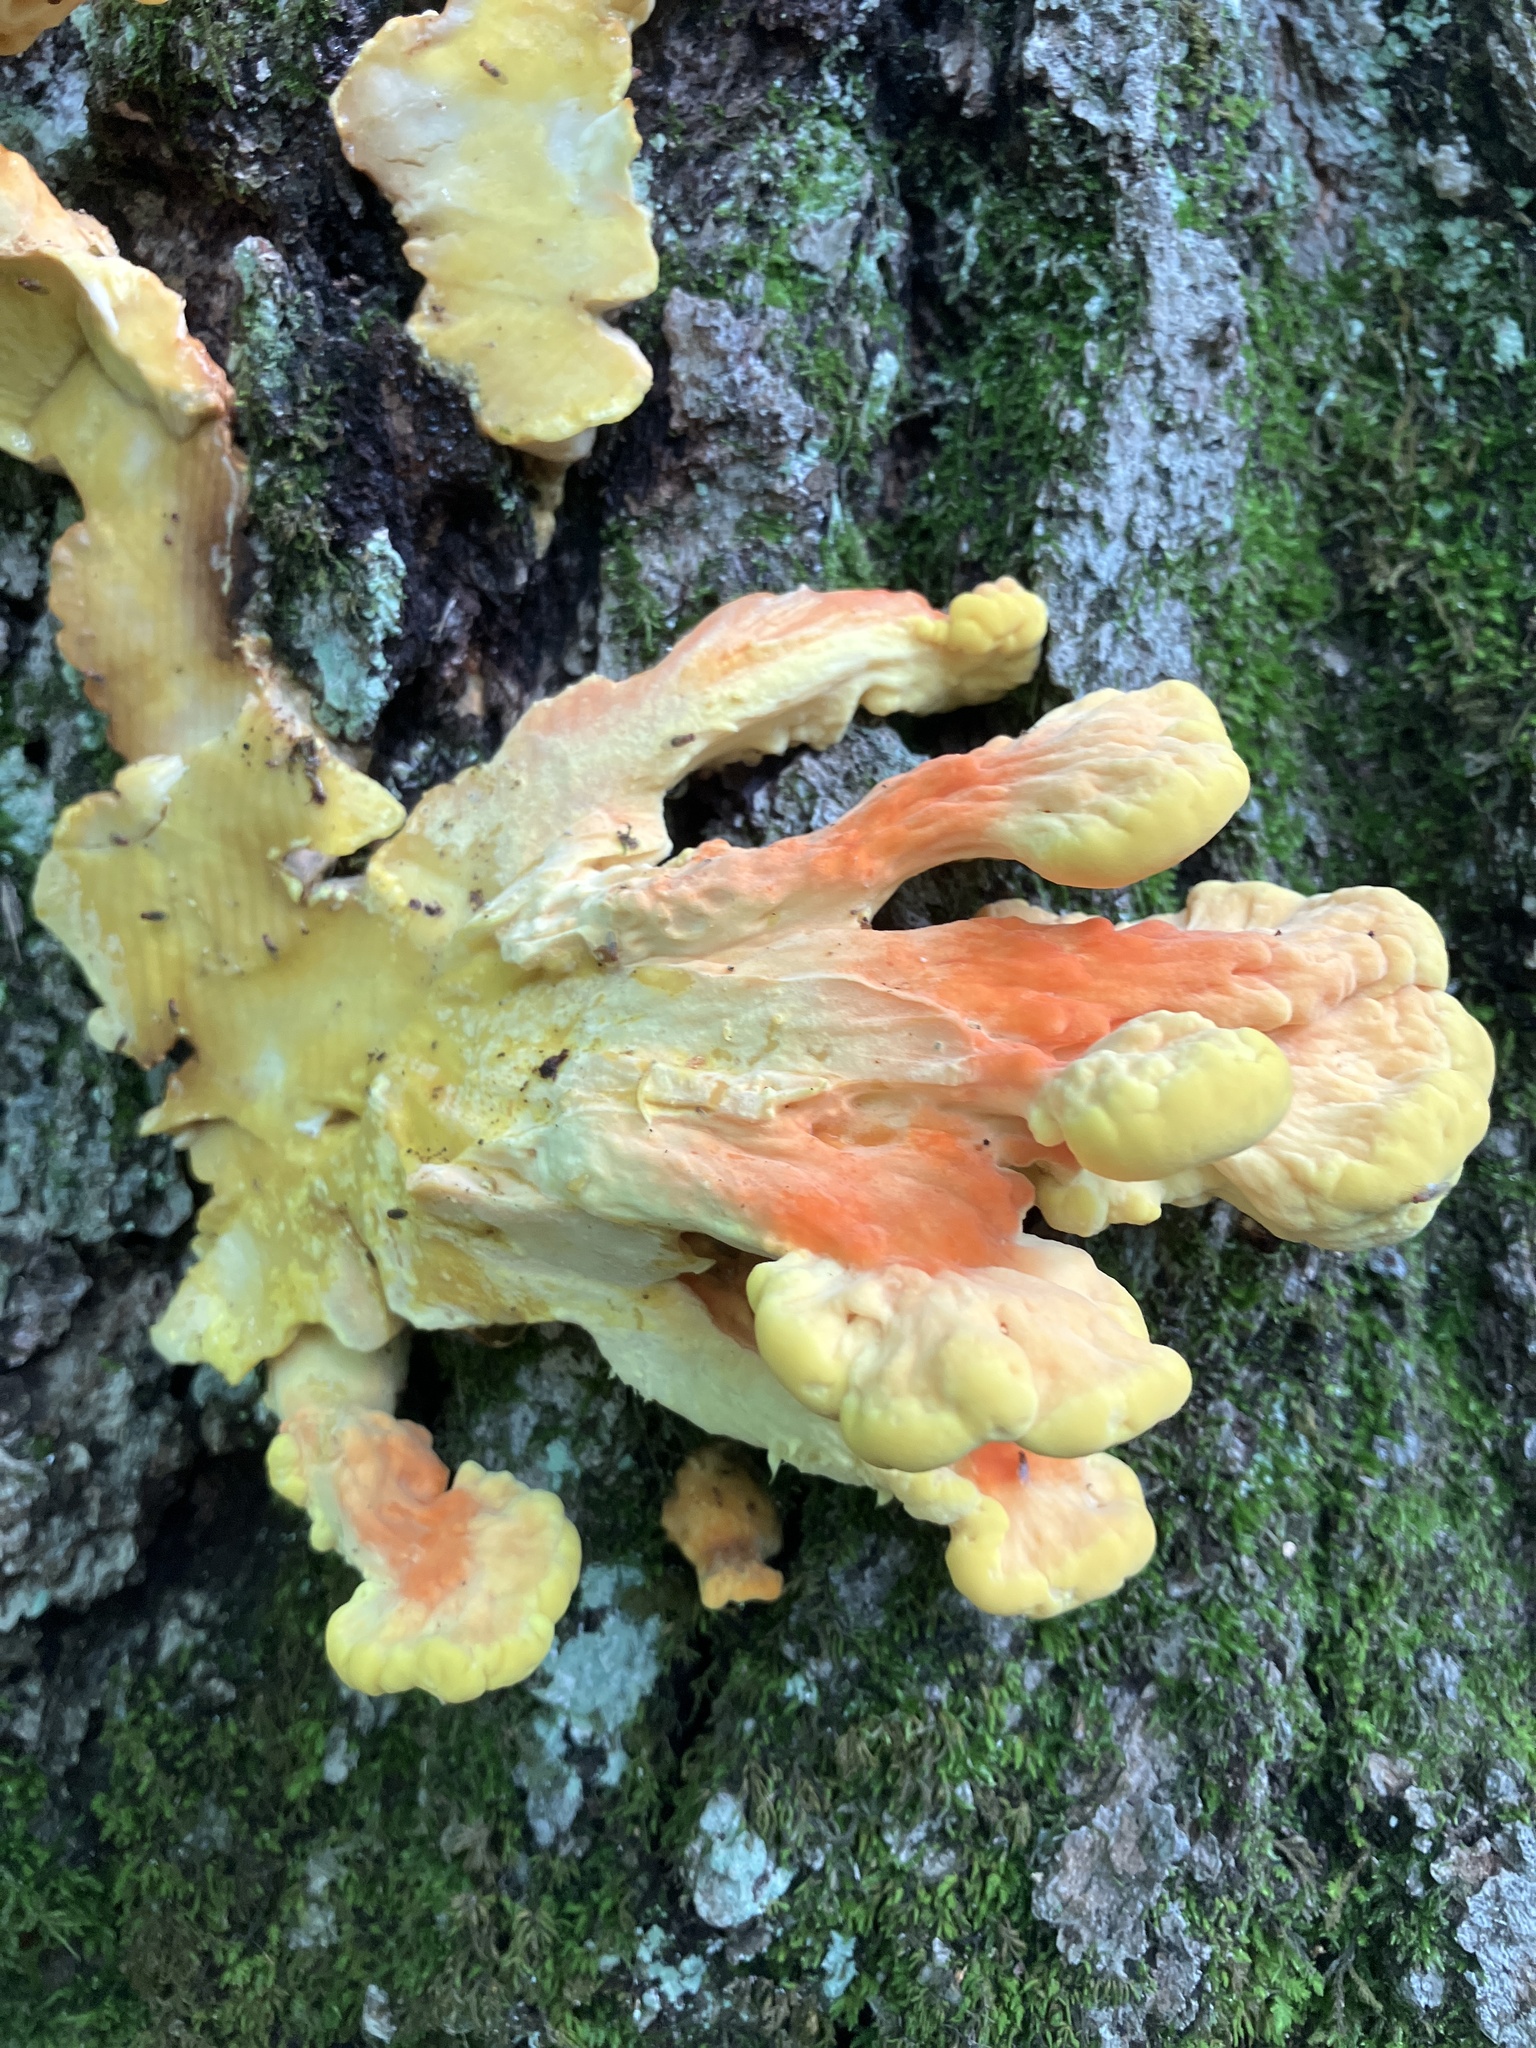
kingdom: Fungi
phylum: Basidiomycota
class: Agaricomycetes
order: Polyporales
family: Laetiporaceae
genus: Laetiporus
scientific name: Laetiporus sulphureus
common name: Chicken of the woods
